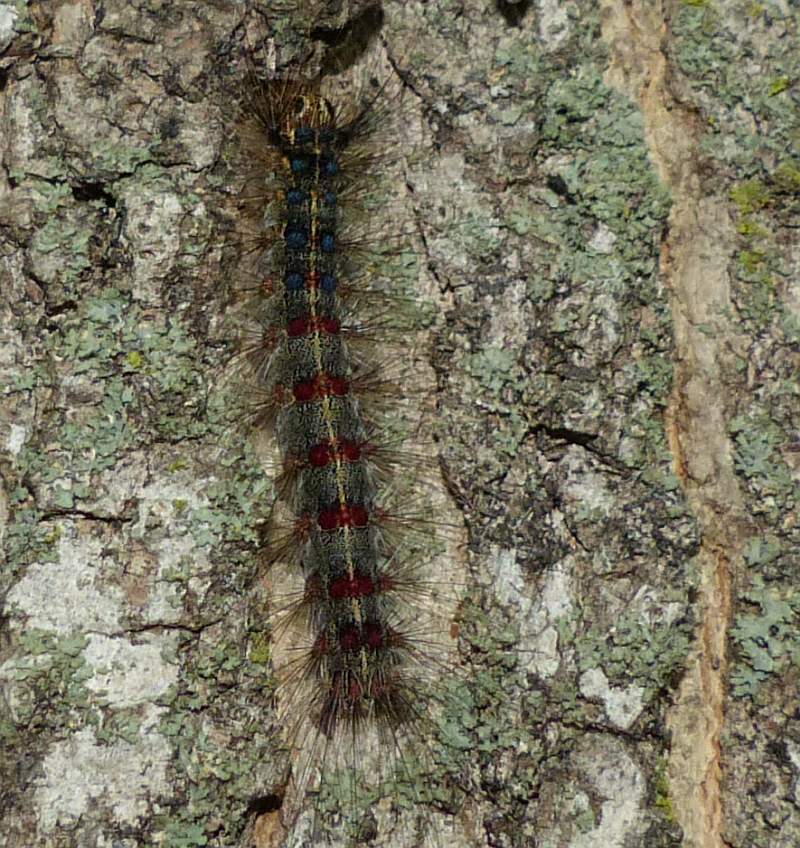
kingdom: Animalia
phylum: Arthropoda
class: Insecta
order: Lepidoptera
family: Erebidae
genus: Lymantria
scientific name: Lymantria dispar
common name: Gypsy moth
